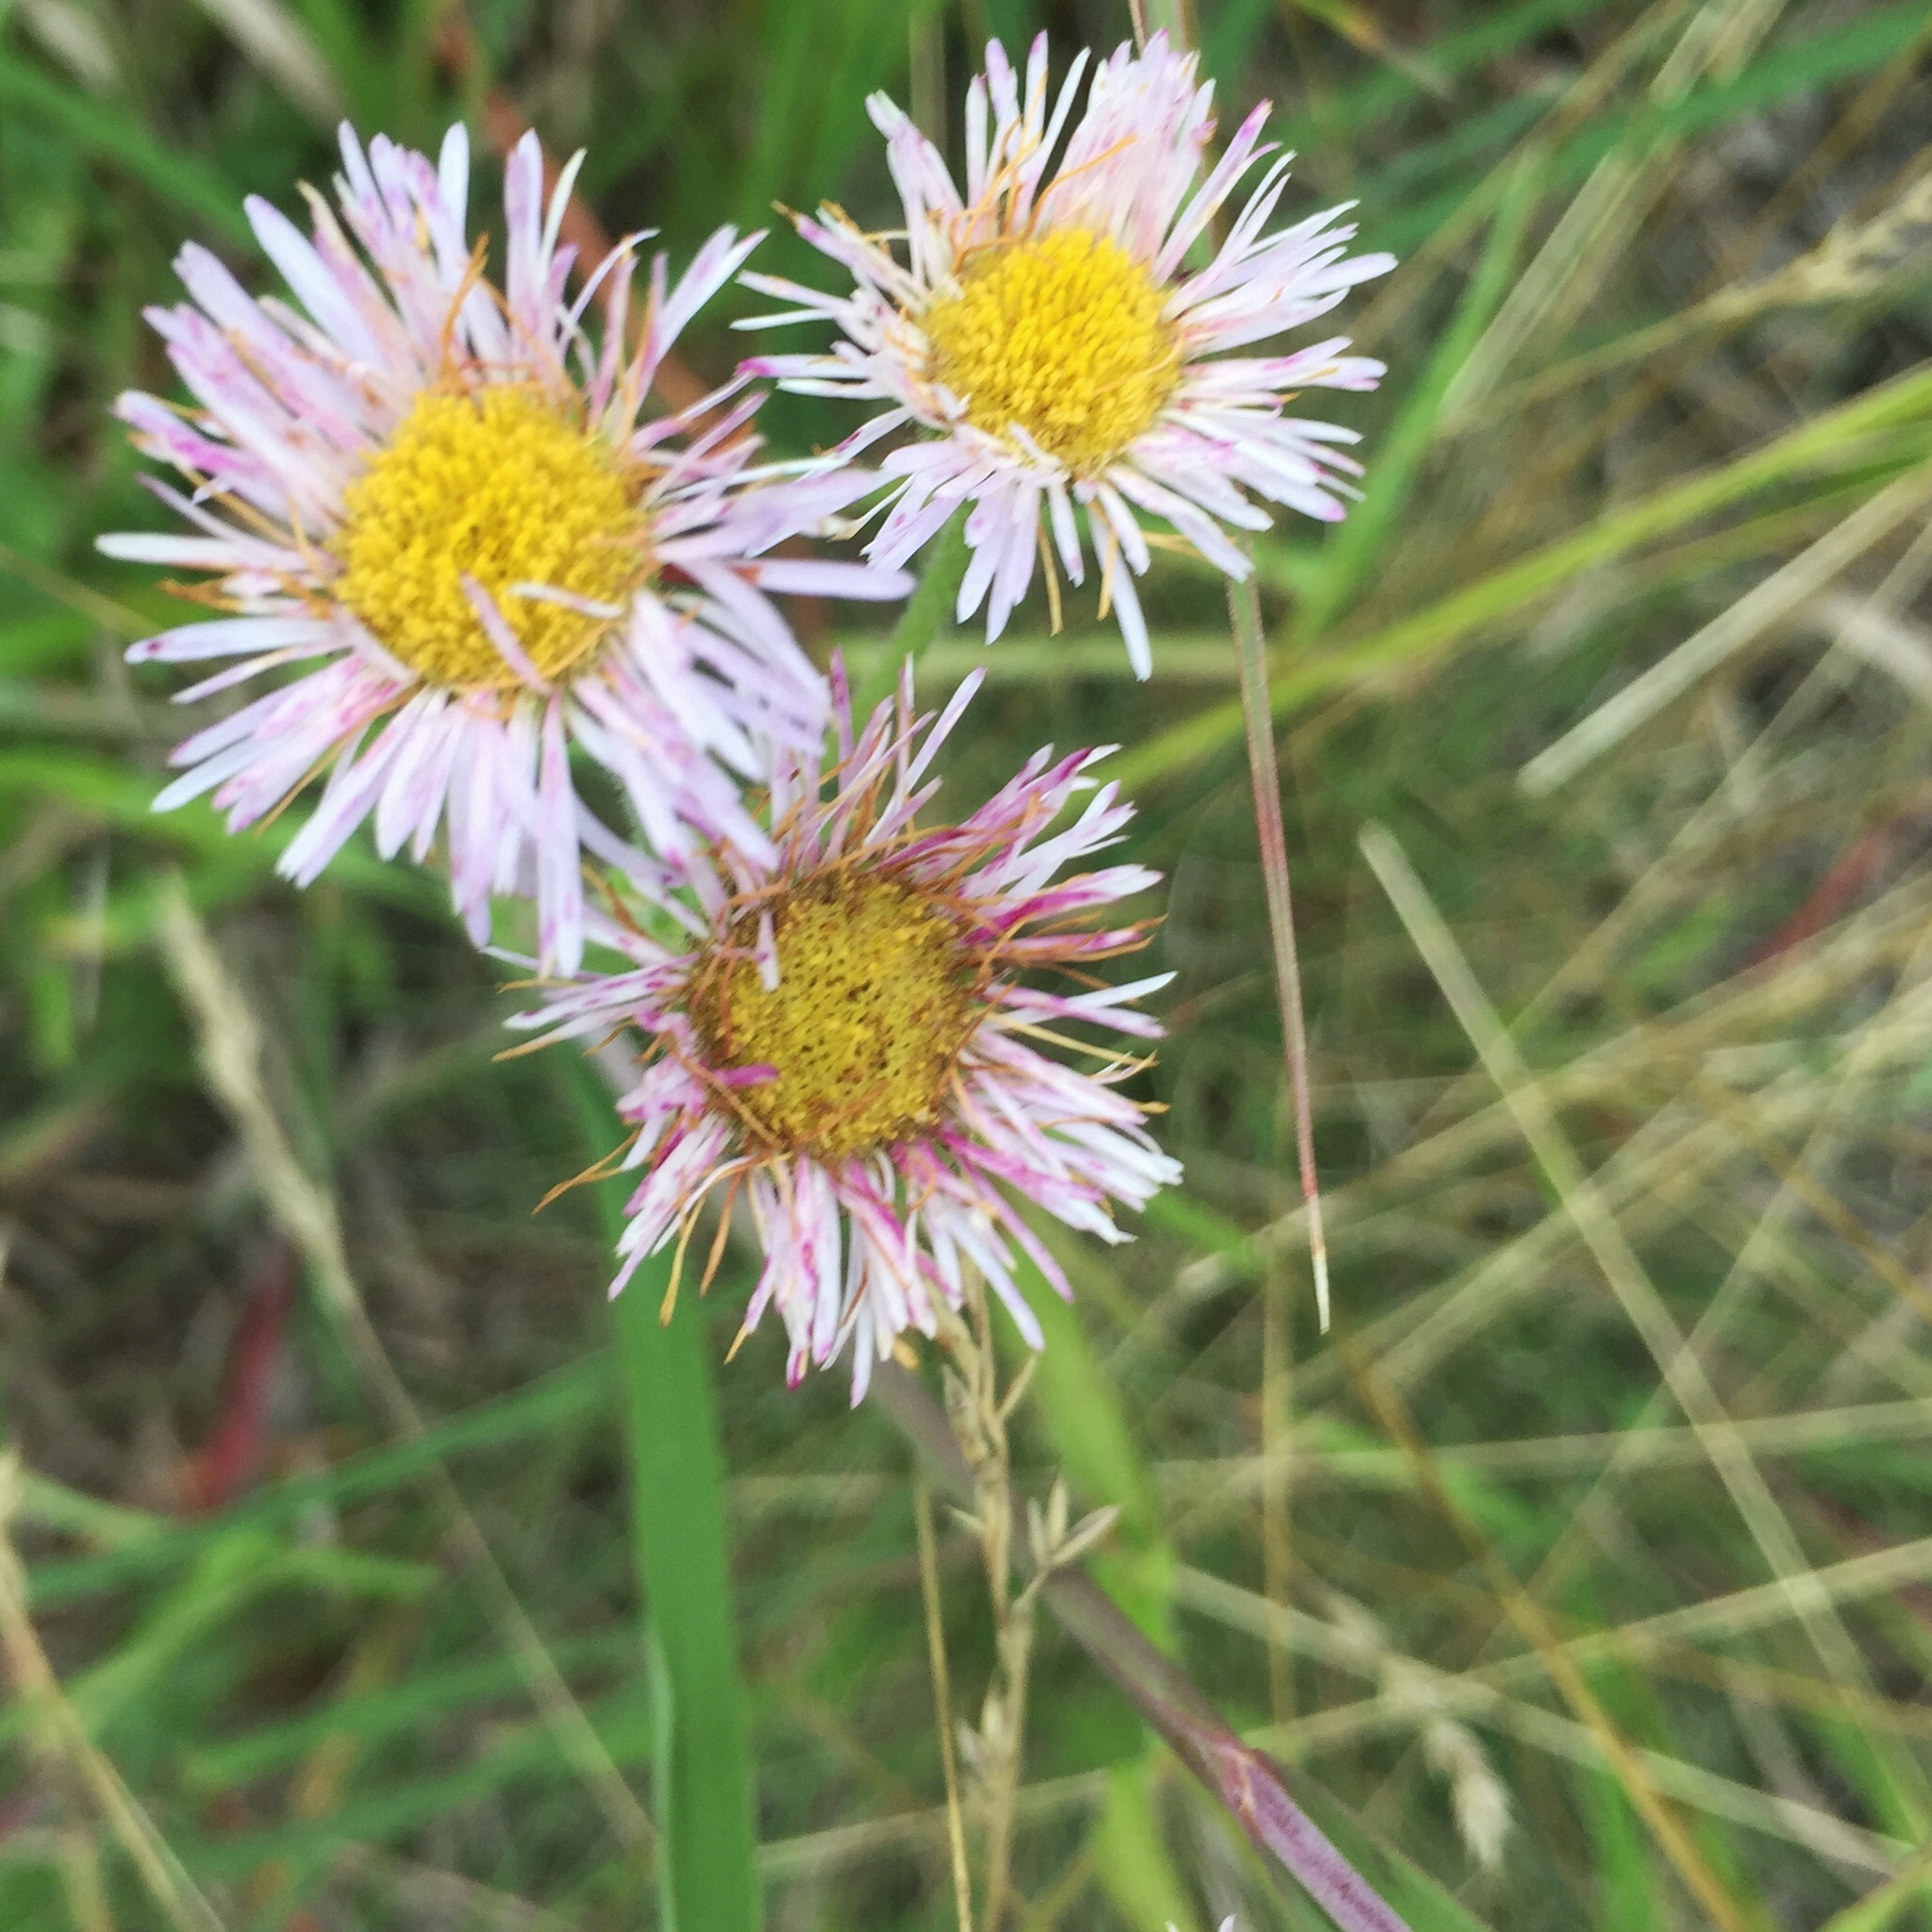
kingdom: Plantae
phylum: Tracheophyta
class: Magnoliopsida
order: Asterales
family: Asteraceae
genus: Erigeron
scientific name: Erigeron glabellus
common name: Smooth fleabane
